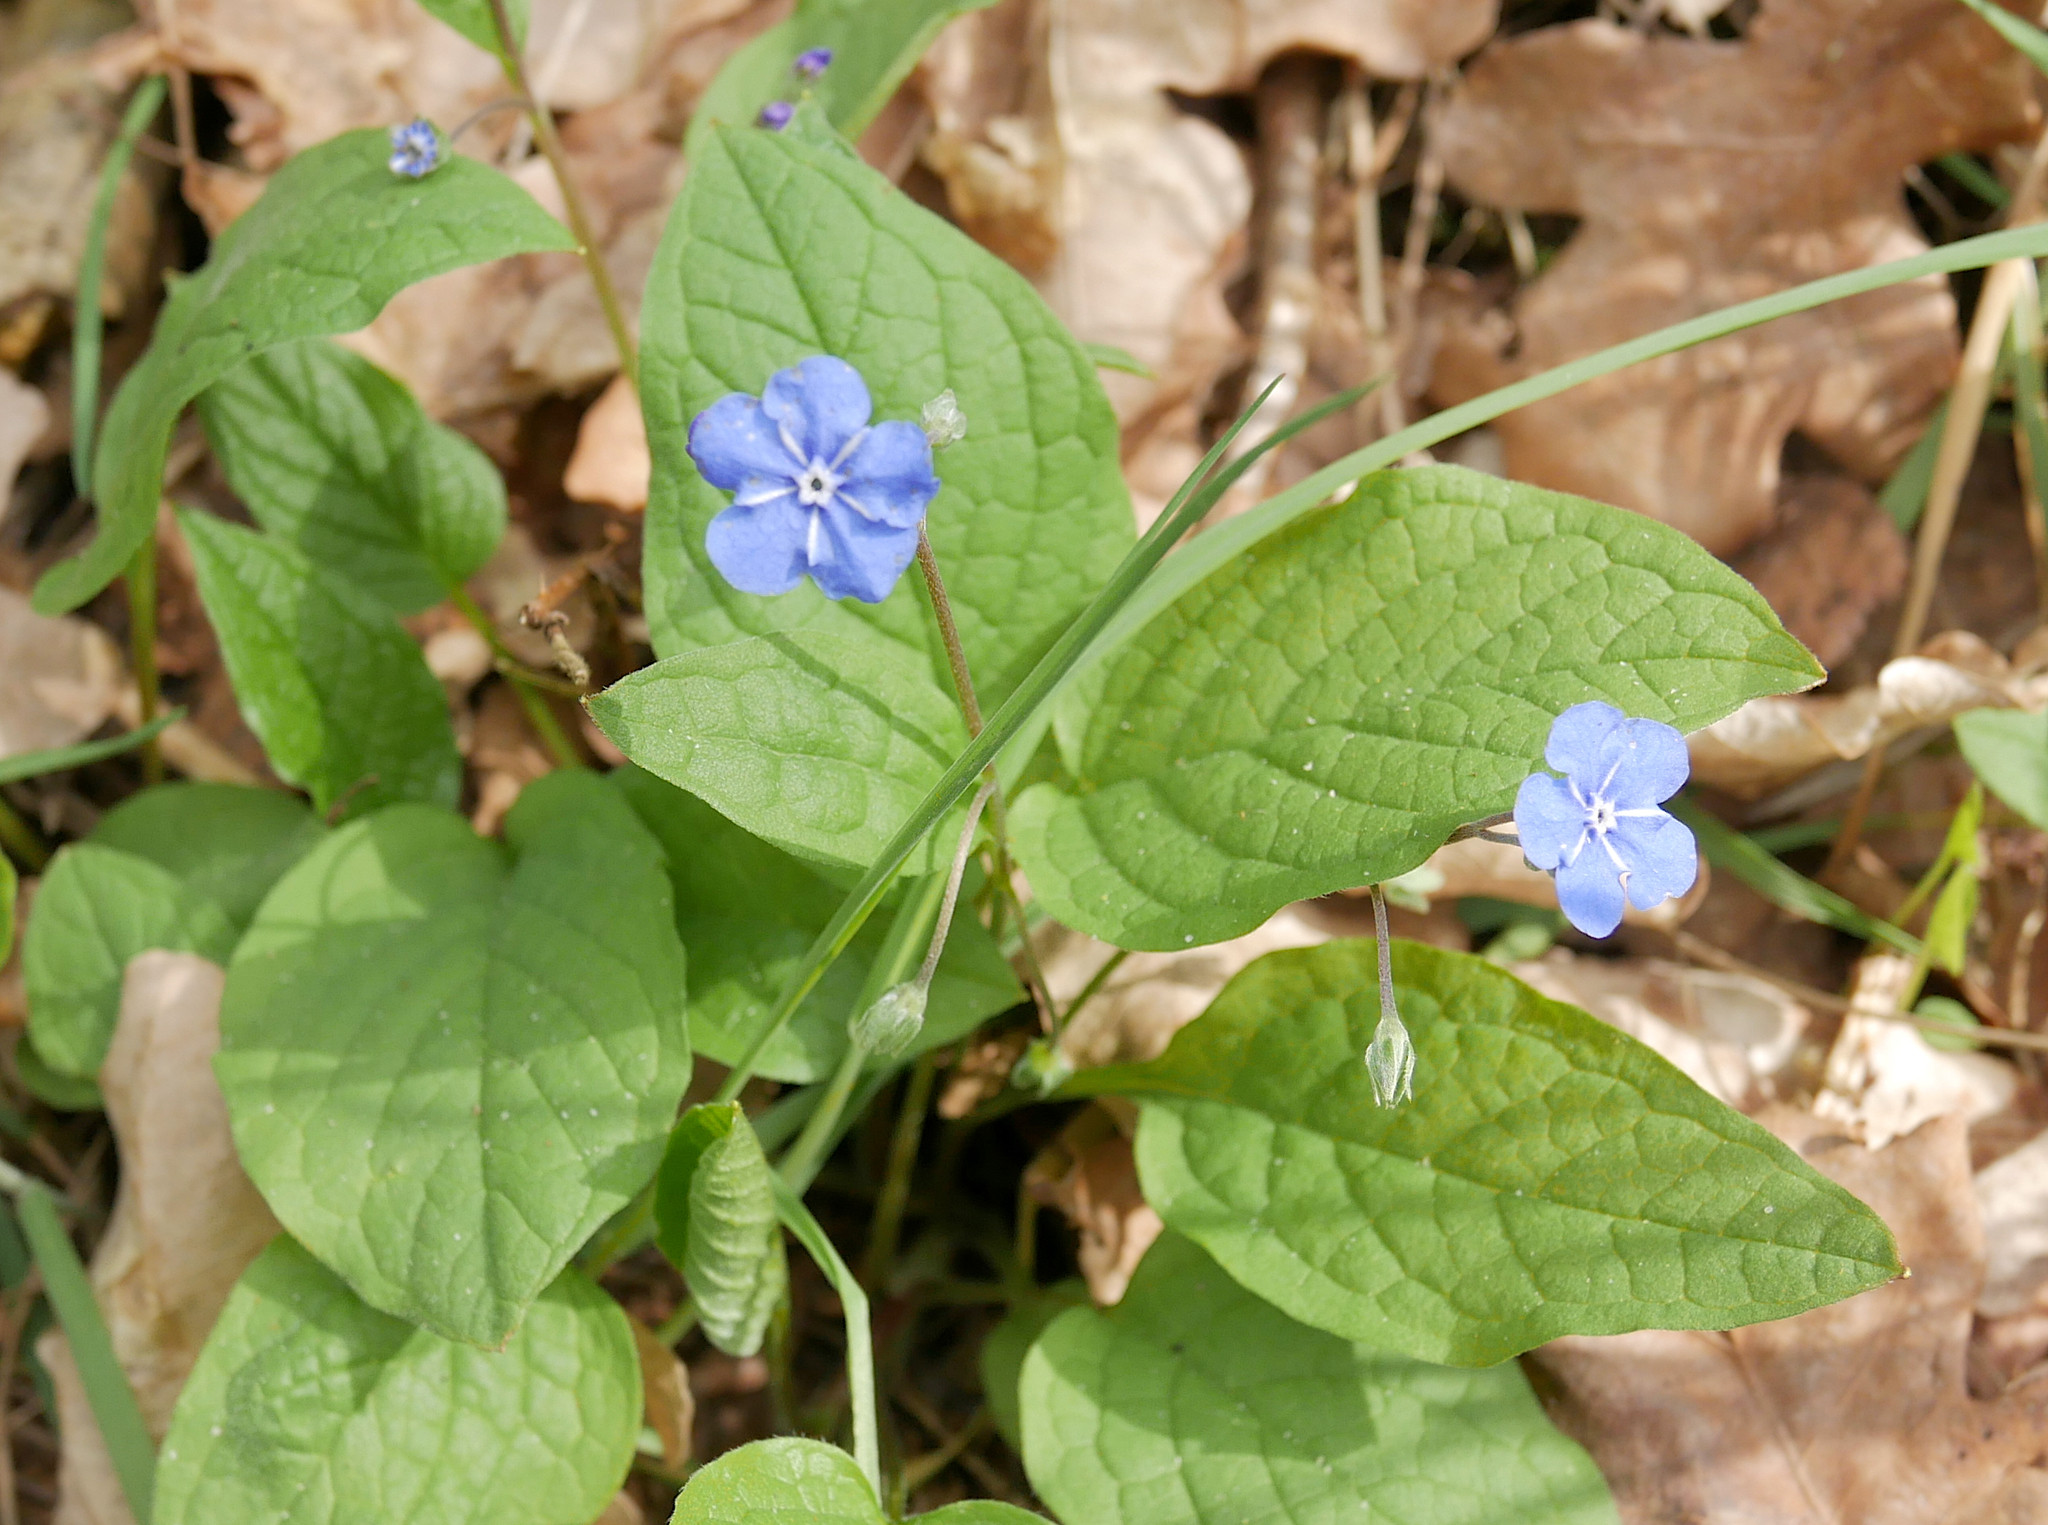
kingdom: Plantae
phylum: Tracheophyta
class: Magnoliopsida
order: Boraginales
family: Boraginaceae
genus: Omphalodes
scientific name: Omphalodes verna
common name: Blue-eyed-mary
